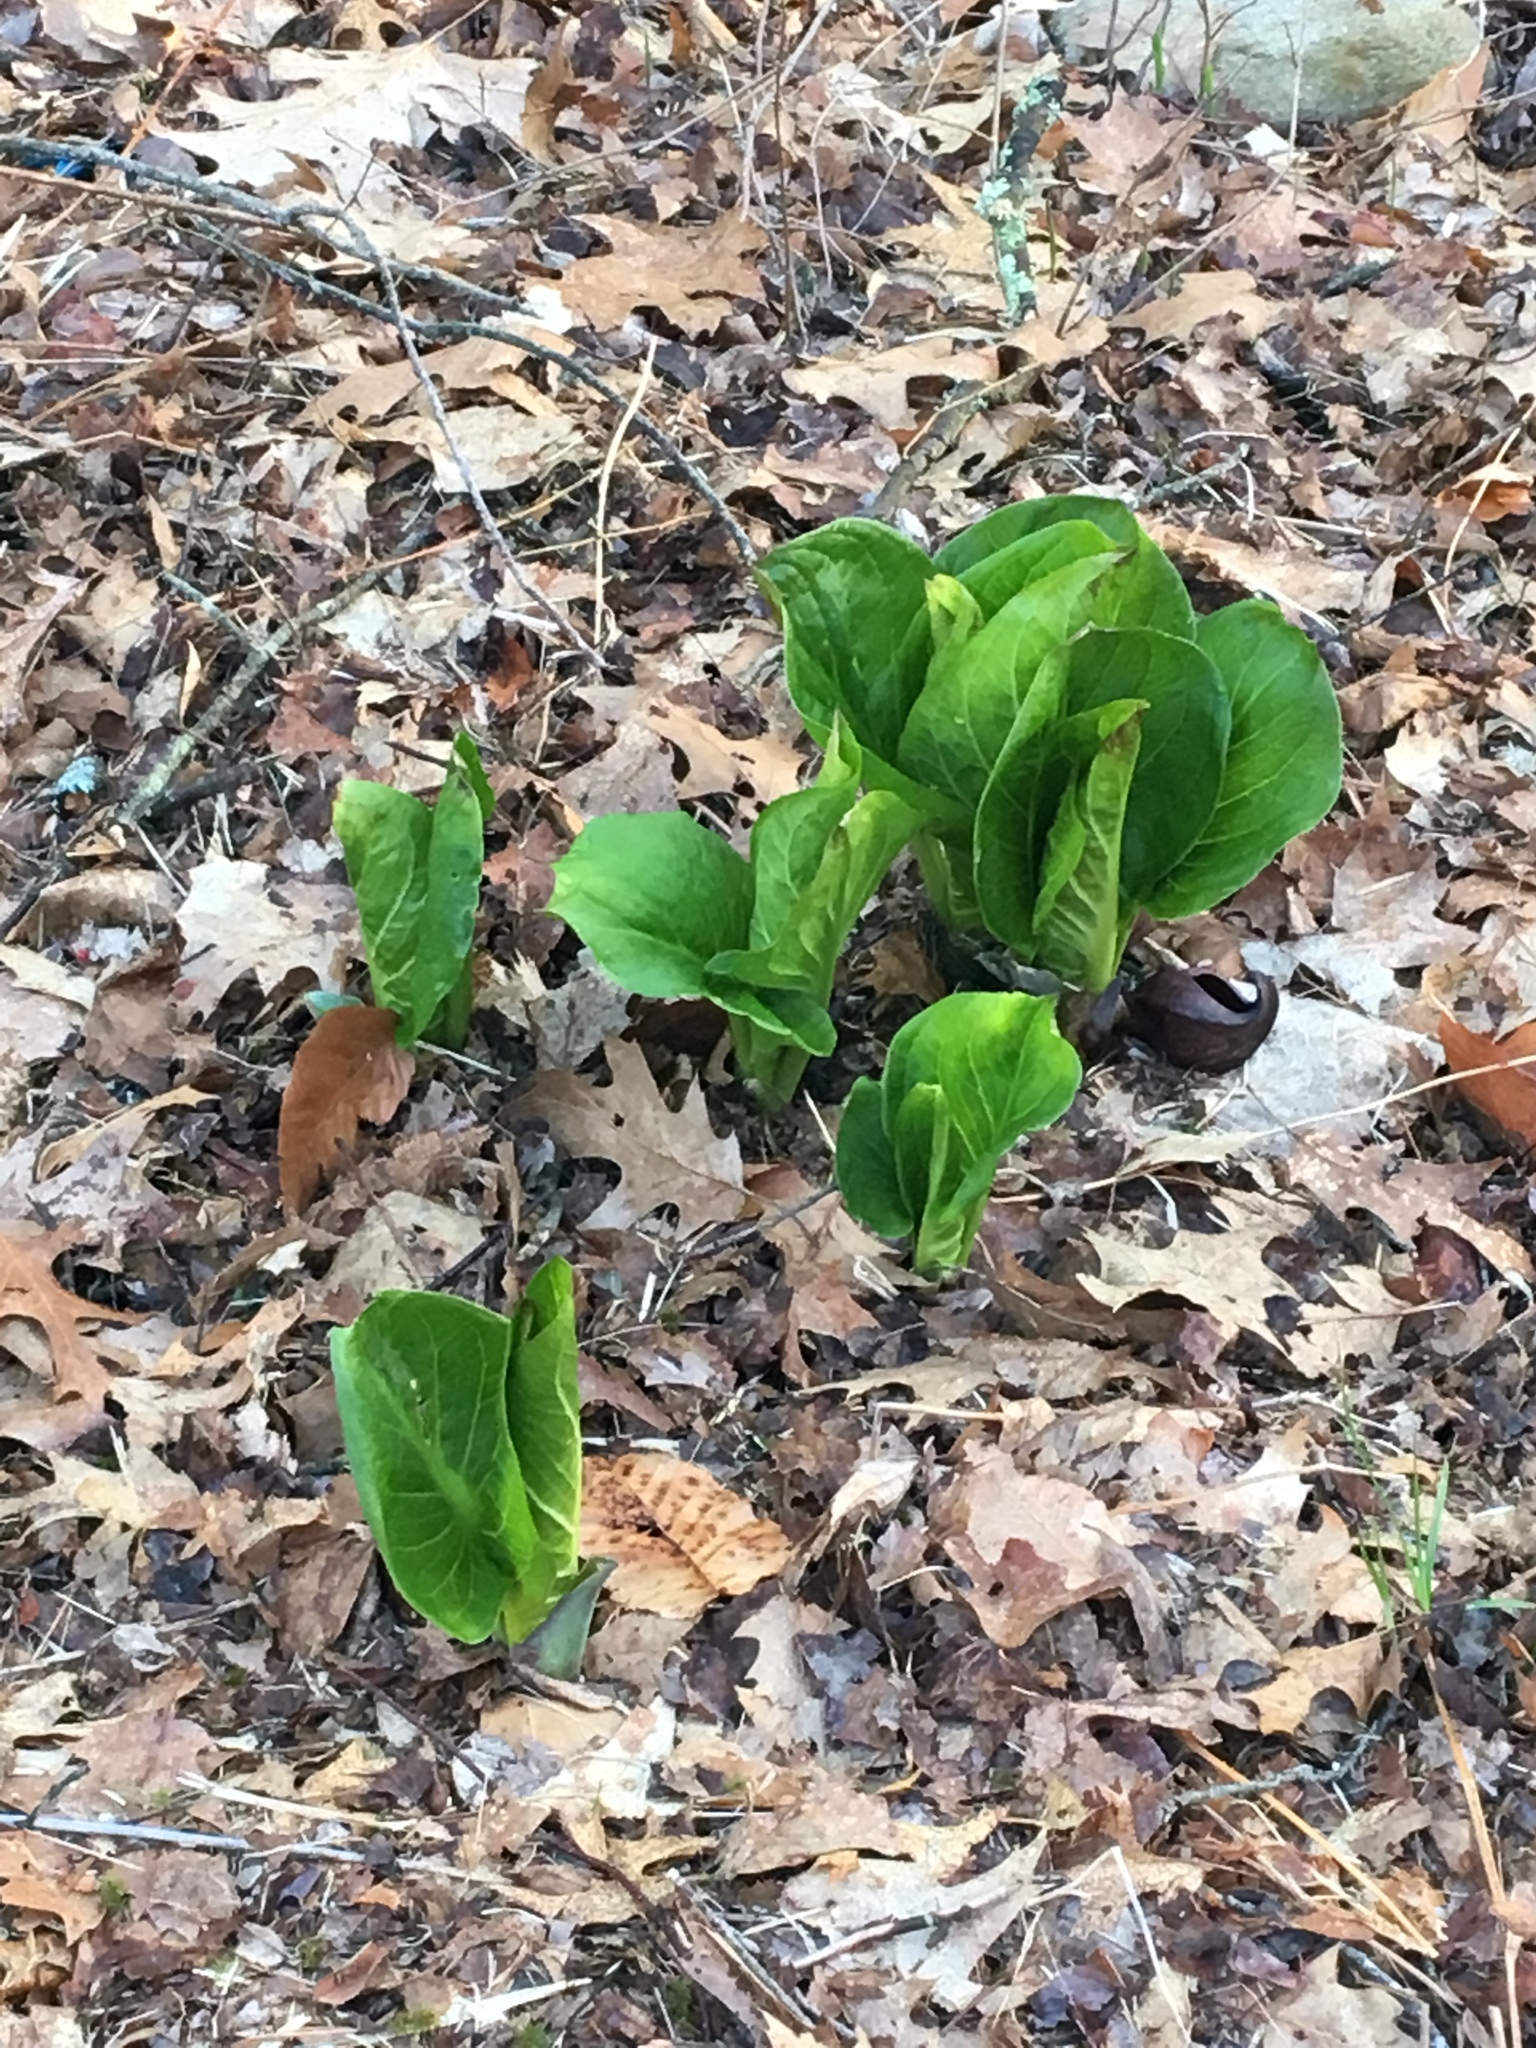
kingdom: Plantae
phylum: Tracheophyta
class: Liliopsida
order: Alismatales
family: Araceae
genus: Symplocarpus
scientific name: Symplocarpus foetidus
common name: Eastern skunk cabbage
